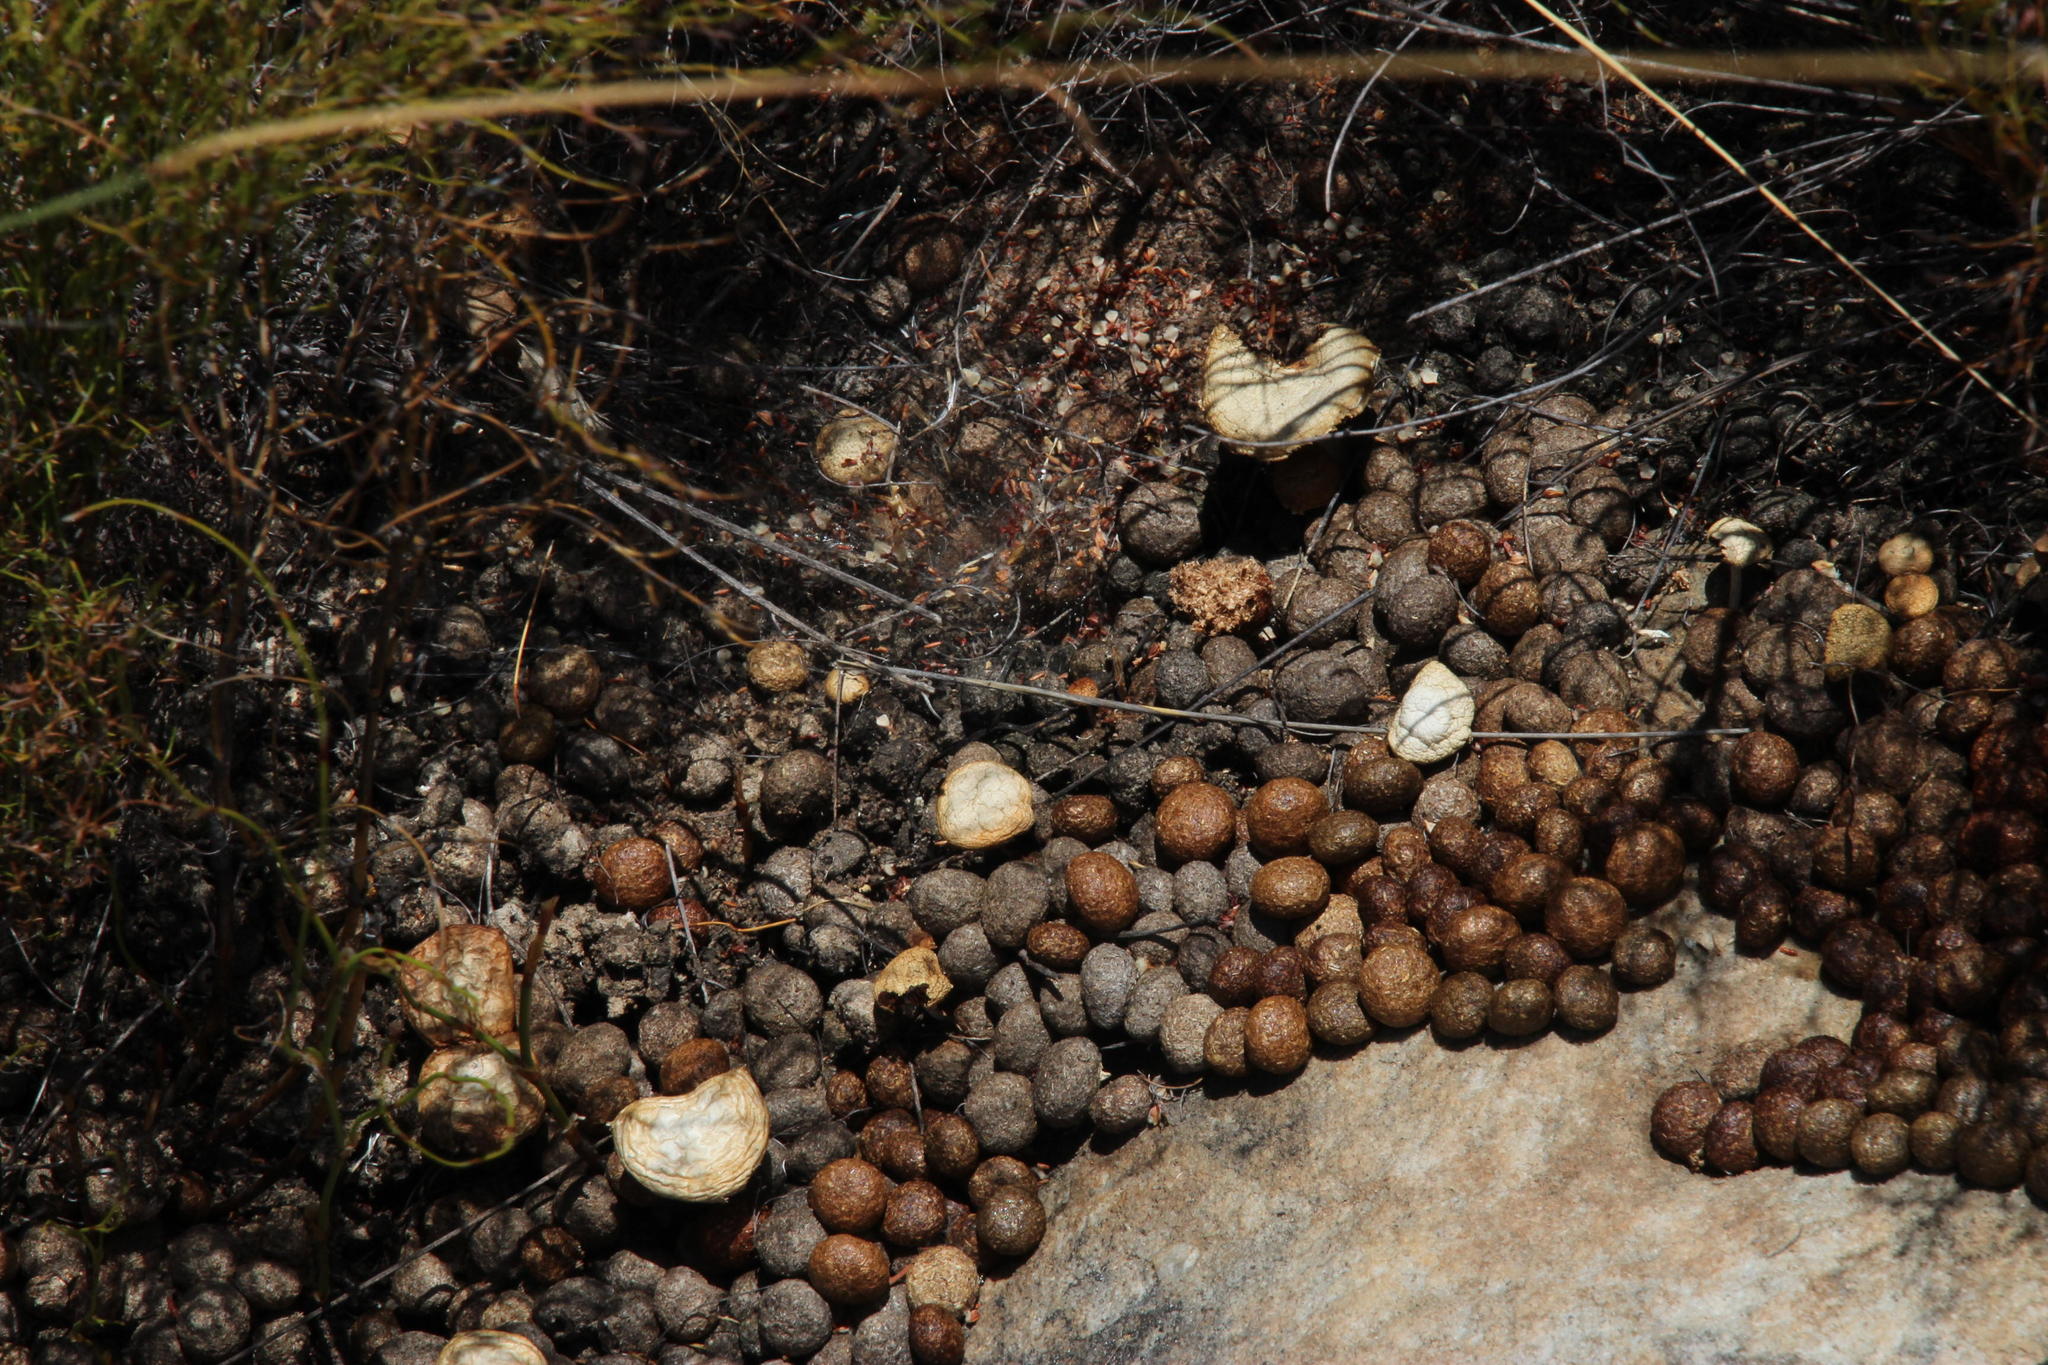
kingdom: Animalia
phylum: Chordata
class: Mammalia
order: Lagomorpha
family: Leporidae
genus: Pronolagus
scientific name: Pronolagus saundersiae
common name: Hewitt's red rock hare
